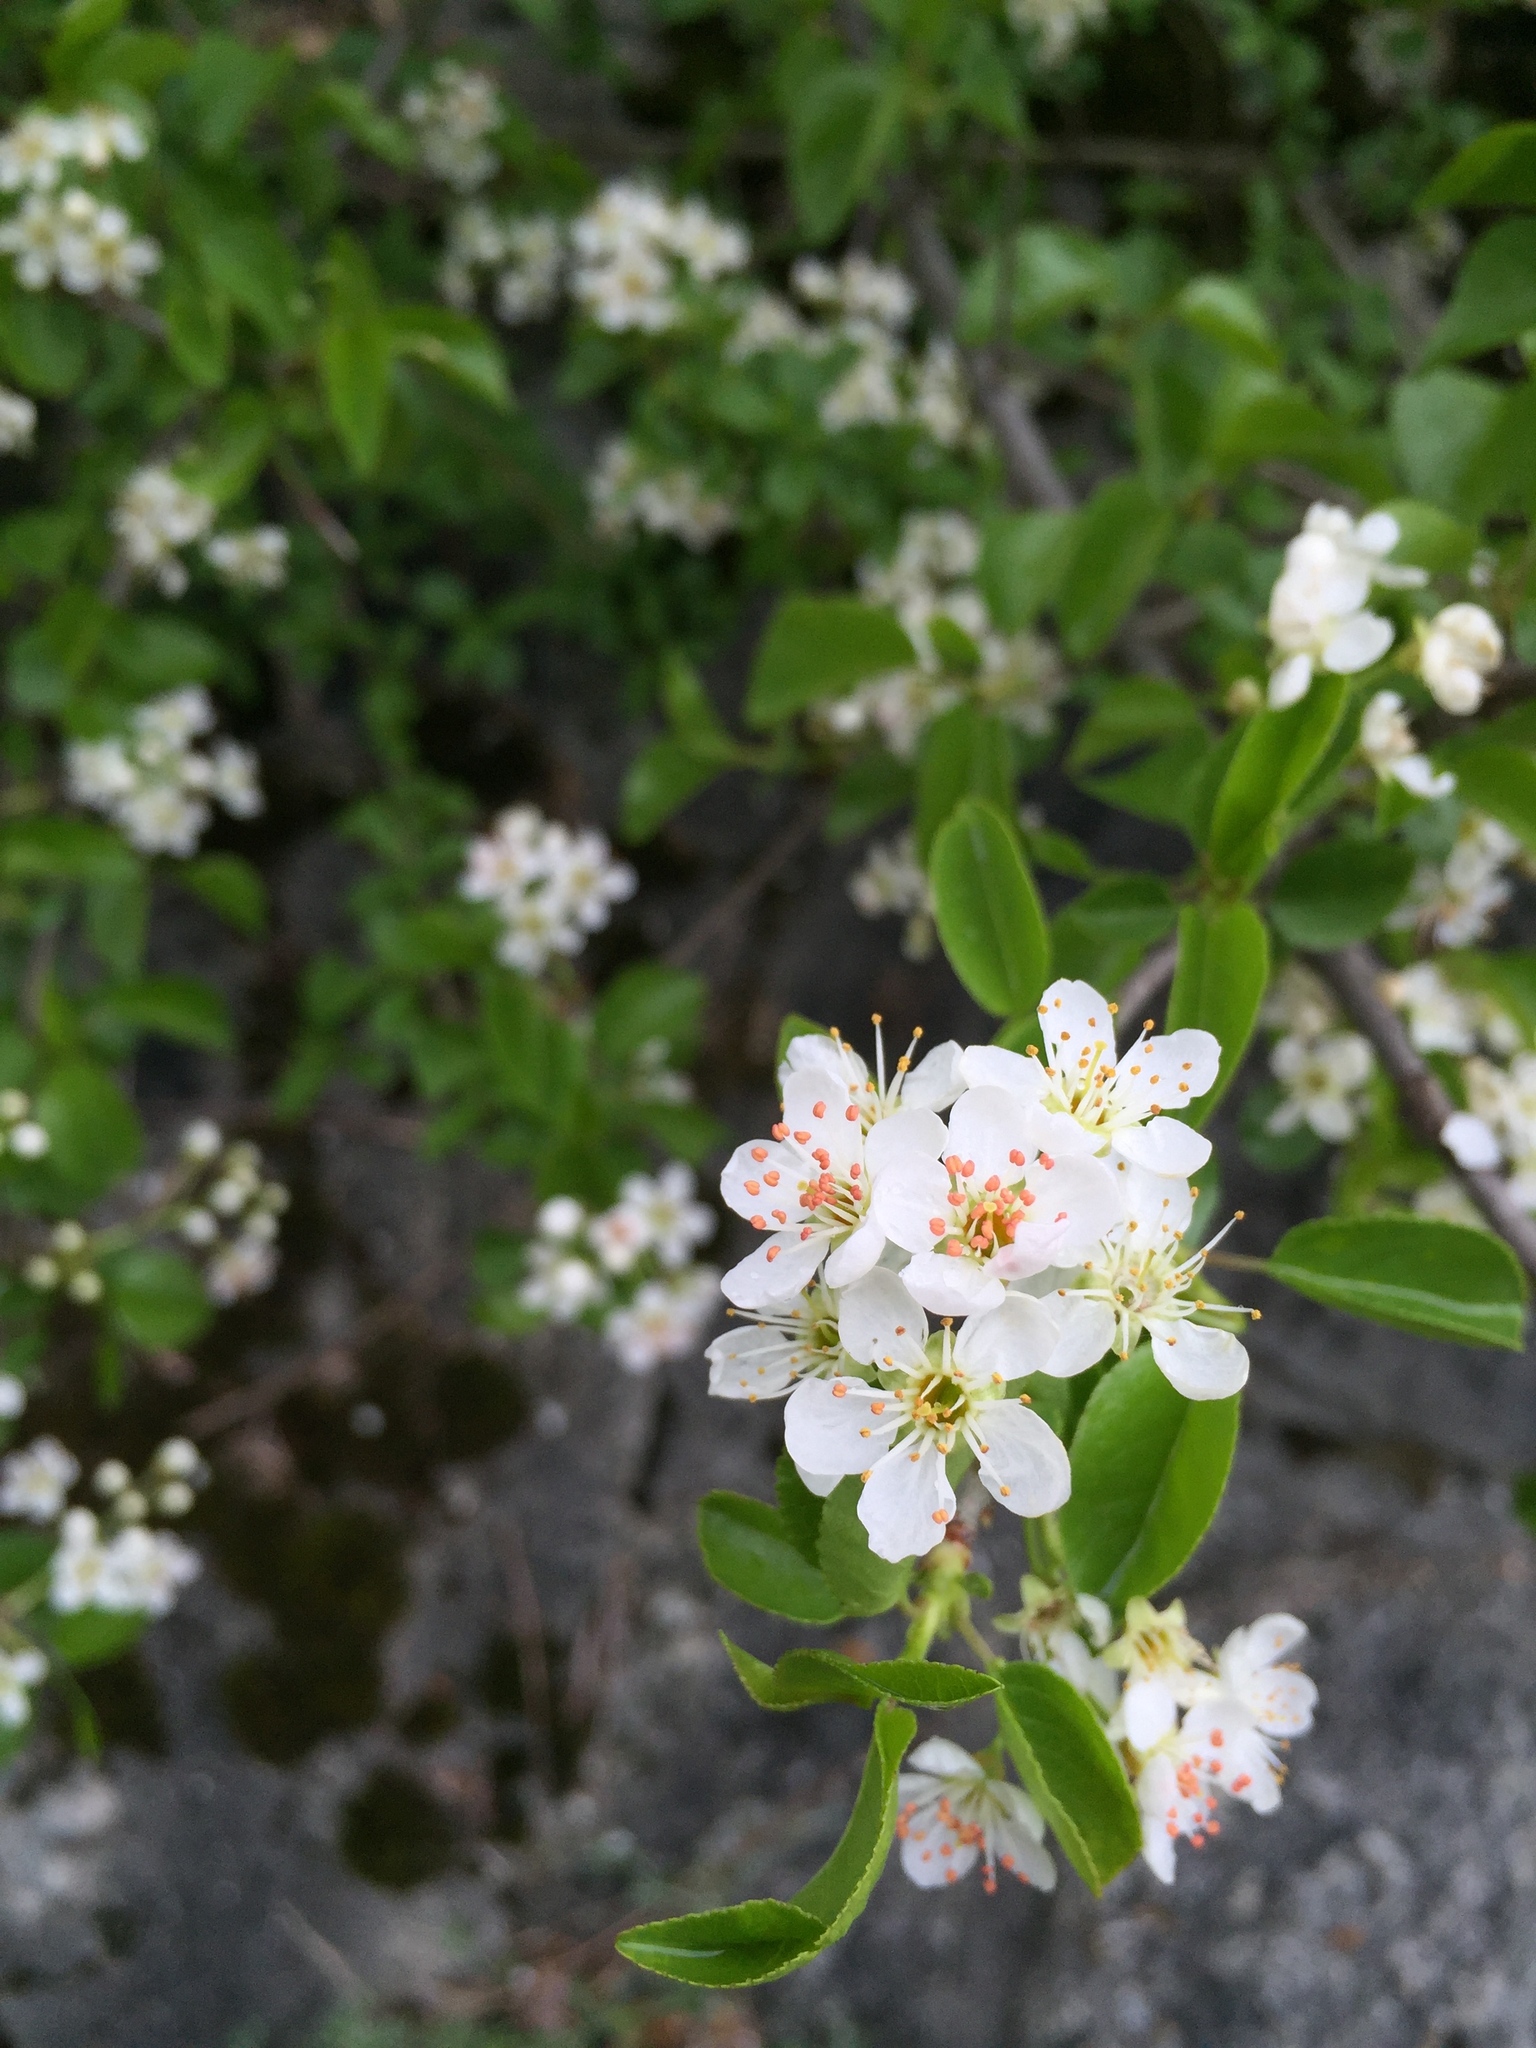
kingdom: Plantae
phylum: Tracheophyta
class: Magnoliopsida
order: Rosales
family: Rosaceae
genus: Prunus
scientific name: Prunus mahaleb
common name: Mahaleb cherry
